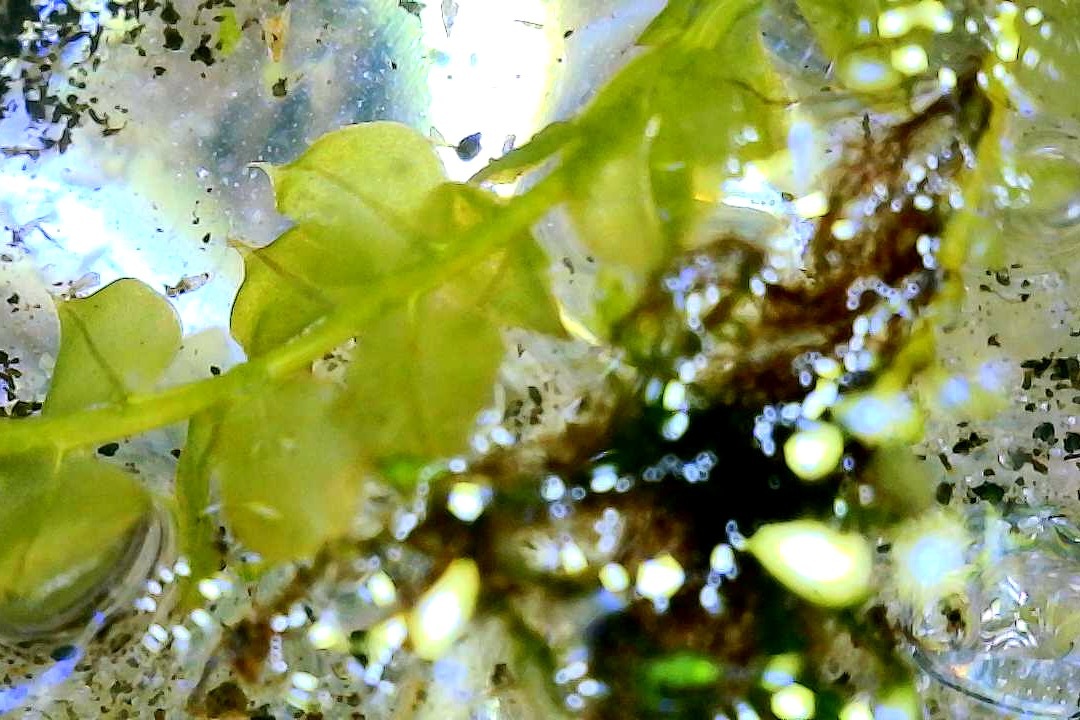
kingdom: Plantae
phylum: Bryophyta
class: Bryopsida
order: Bryales
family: Mniaceae
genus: Plagiomnium
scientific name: Plagiomnium cuspidatum
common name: Woodsy leafy moss
